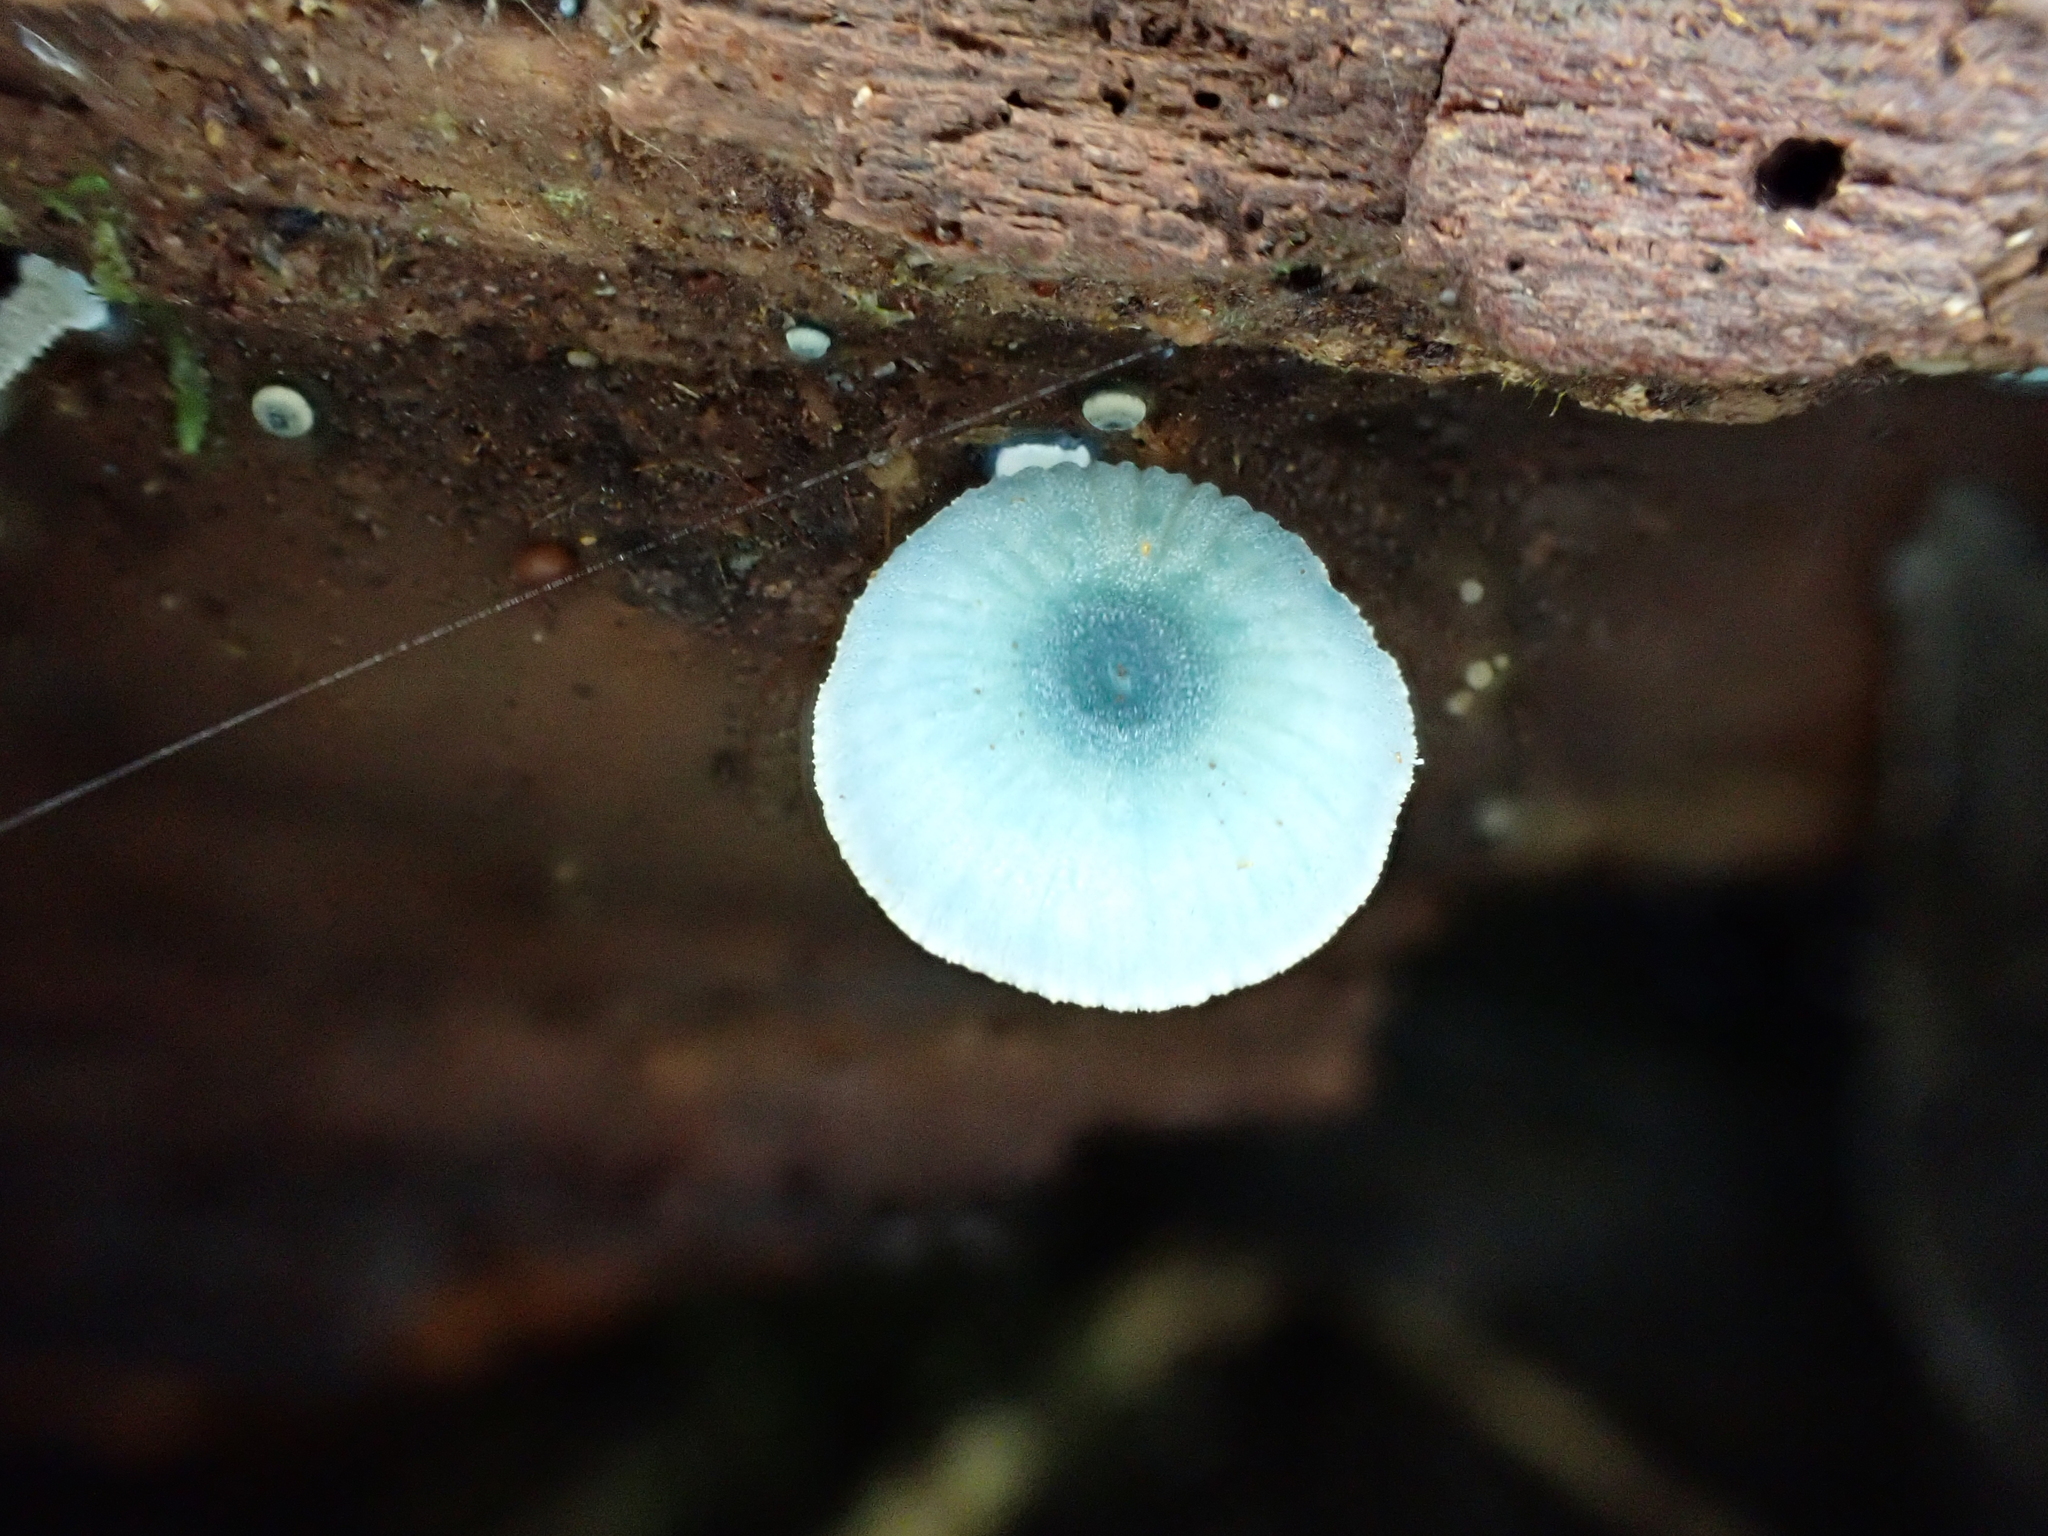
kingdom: Fungi
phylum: Basidiomycota
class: Agaricomycetes
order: Agaricales
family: Mycenaceae
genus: Mycena
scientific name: Mycena interrupta
